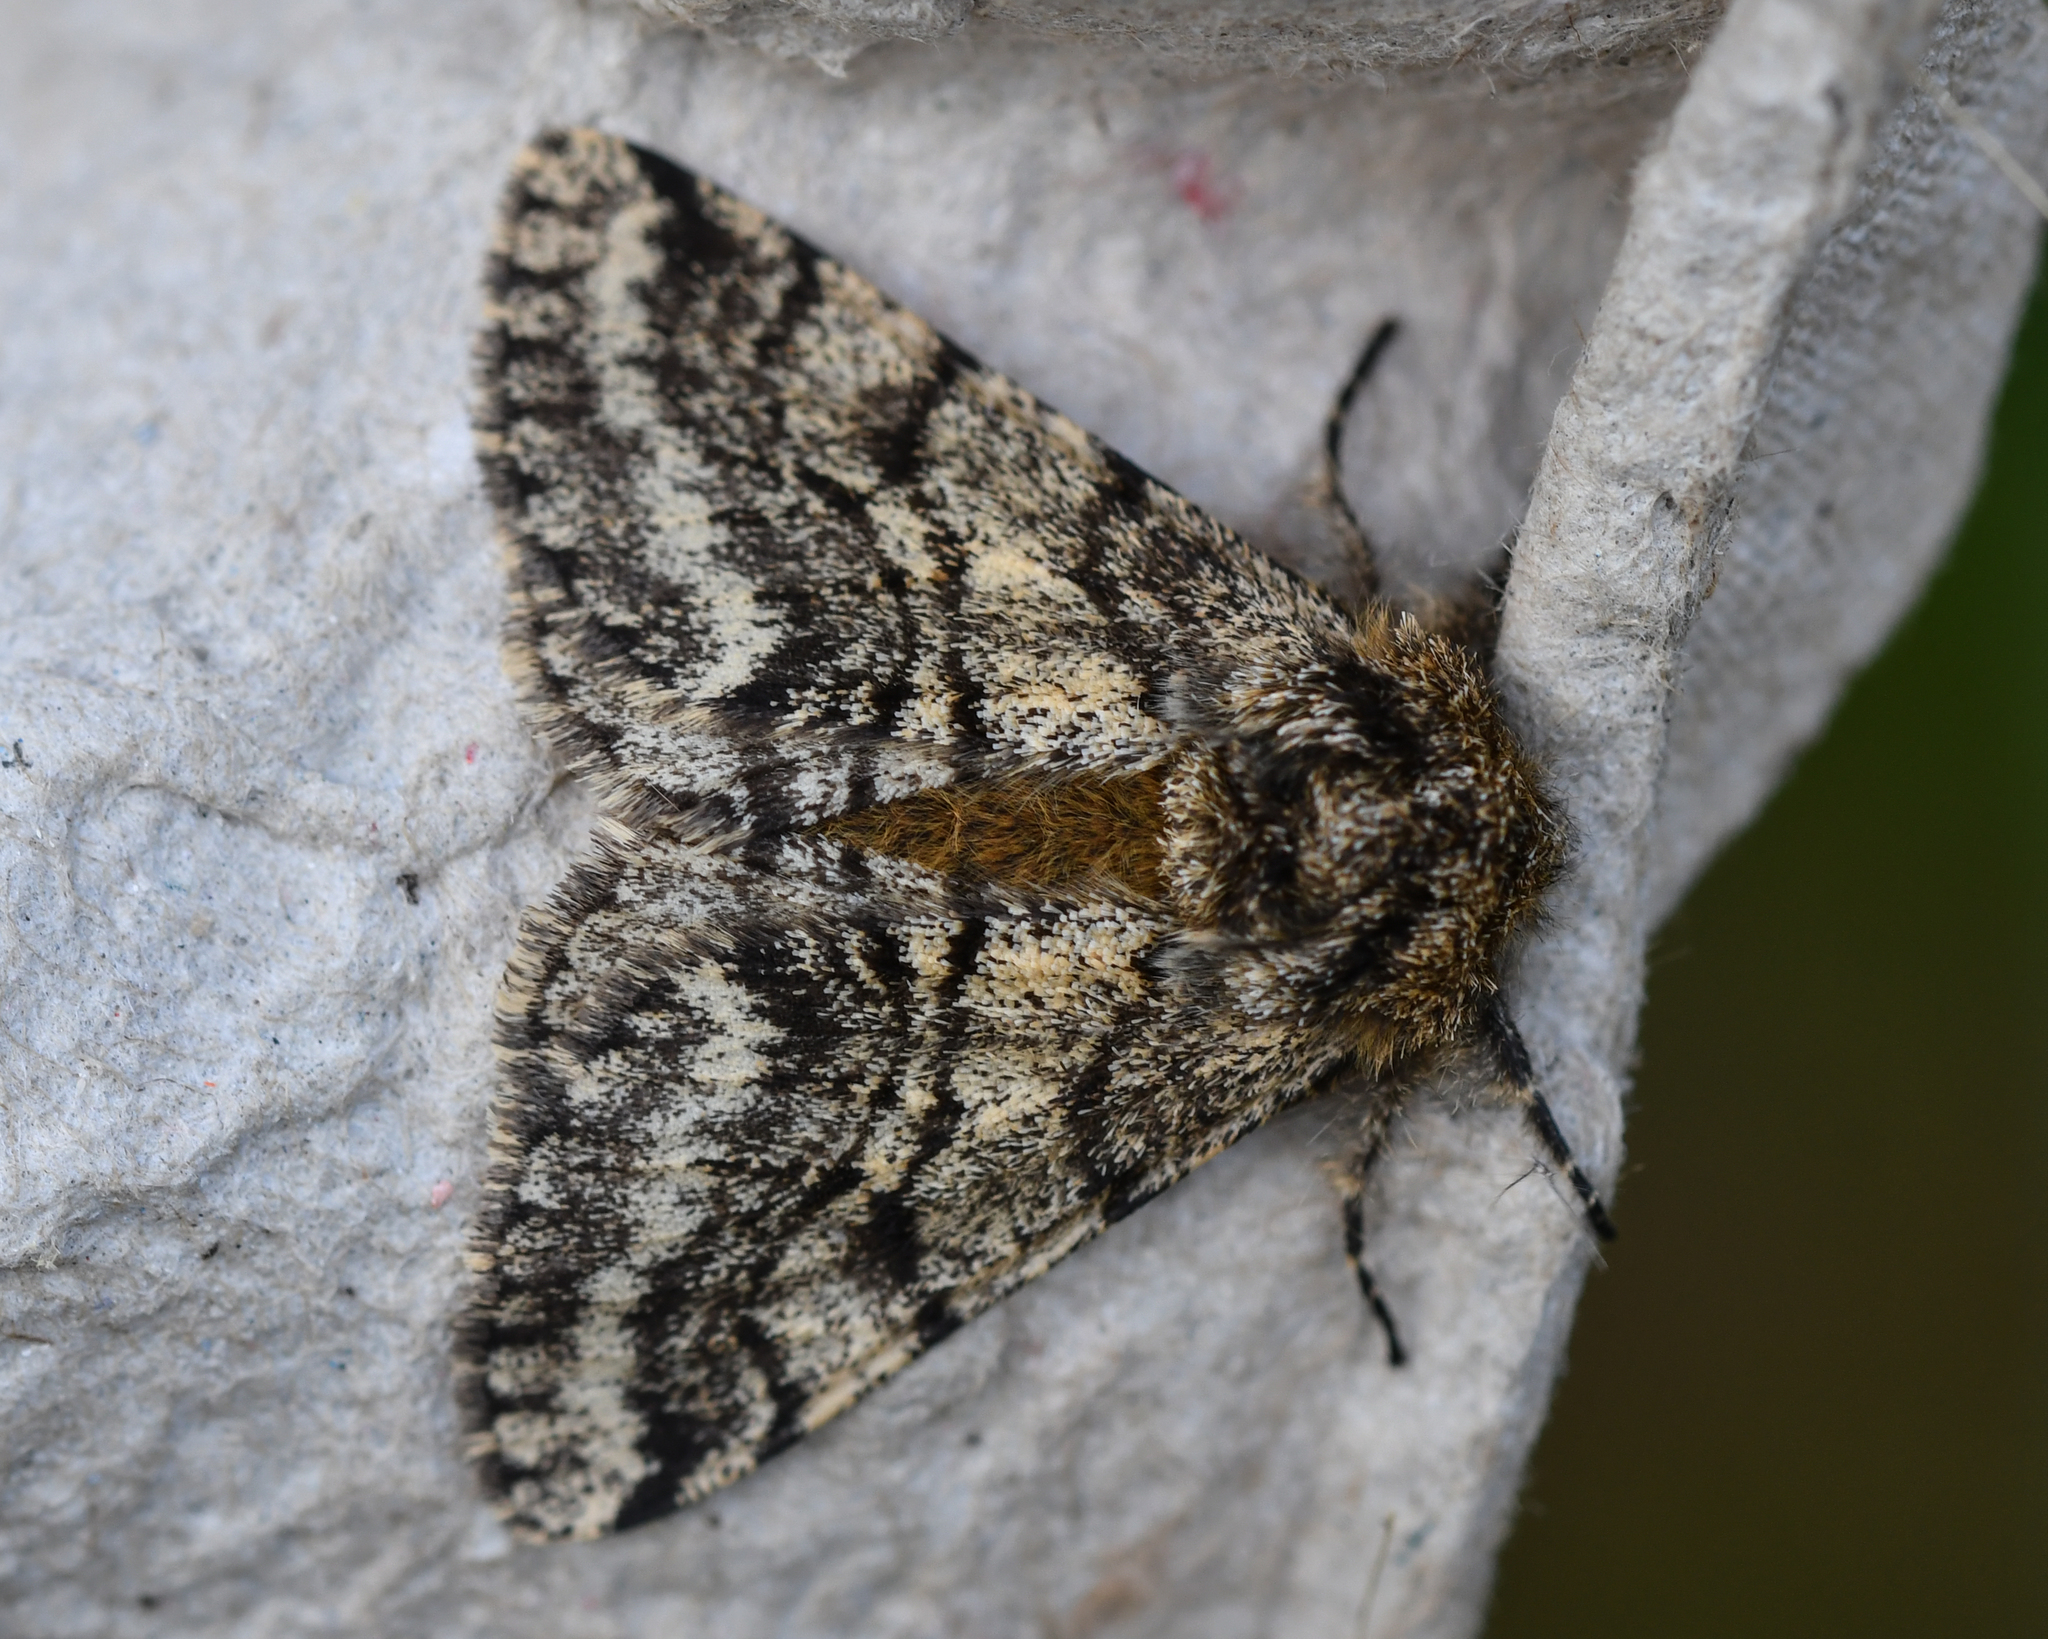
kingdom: Animalia
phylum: Arthropoda
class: Insecta
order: Lepidoptera
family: Geometridae
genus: Lycia
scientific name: Lycia hirtaria
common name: Brindled beauty
